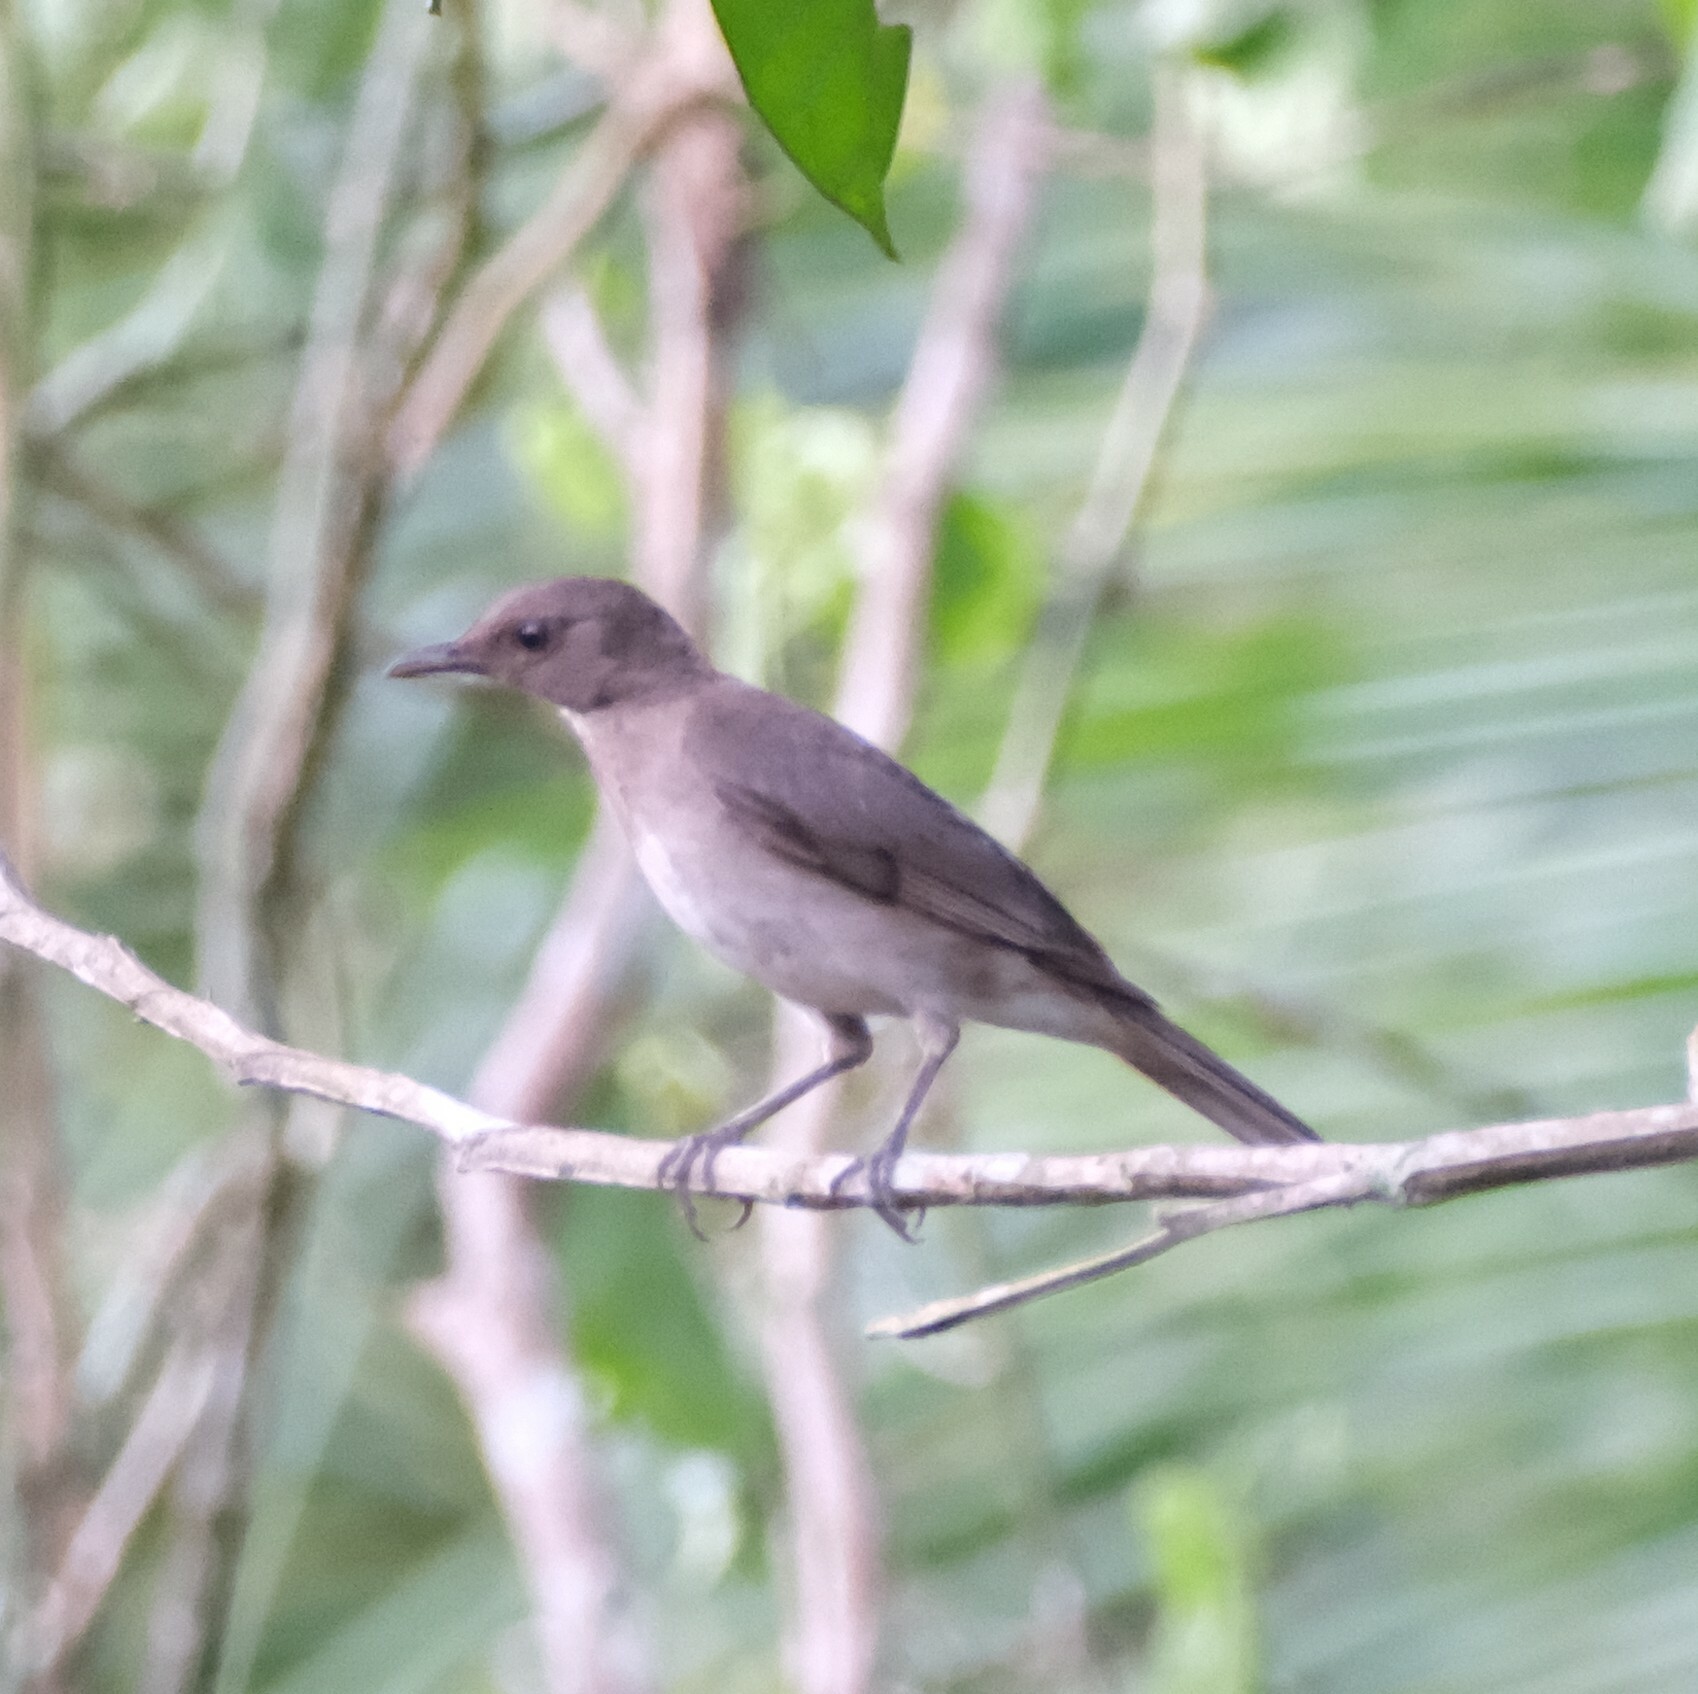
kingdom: Animalia
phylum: Chordata
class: Aves
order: Passeriformes
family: Turdidae
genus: Turdus
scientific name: Turdus ignobilis
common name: Black-billed thrush
